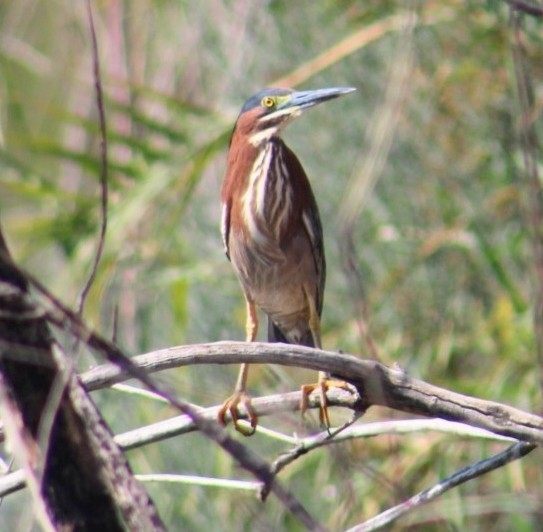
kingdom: Animalia
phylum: Chordata
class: Aves
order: Pelecaniformes
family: Ardeidae
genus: Butorides
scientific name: Butorides virescens
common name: Green heron
